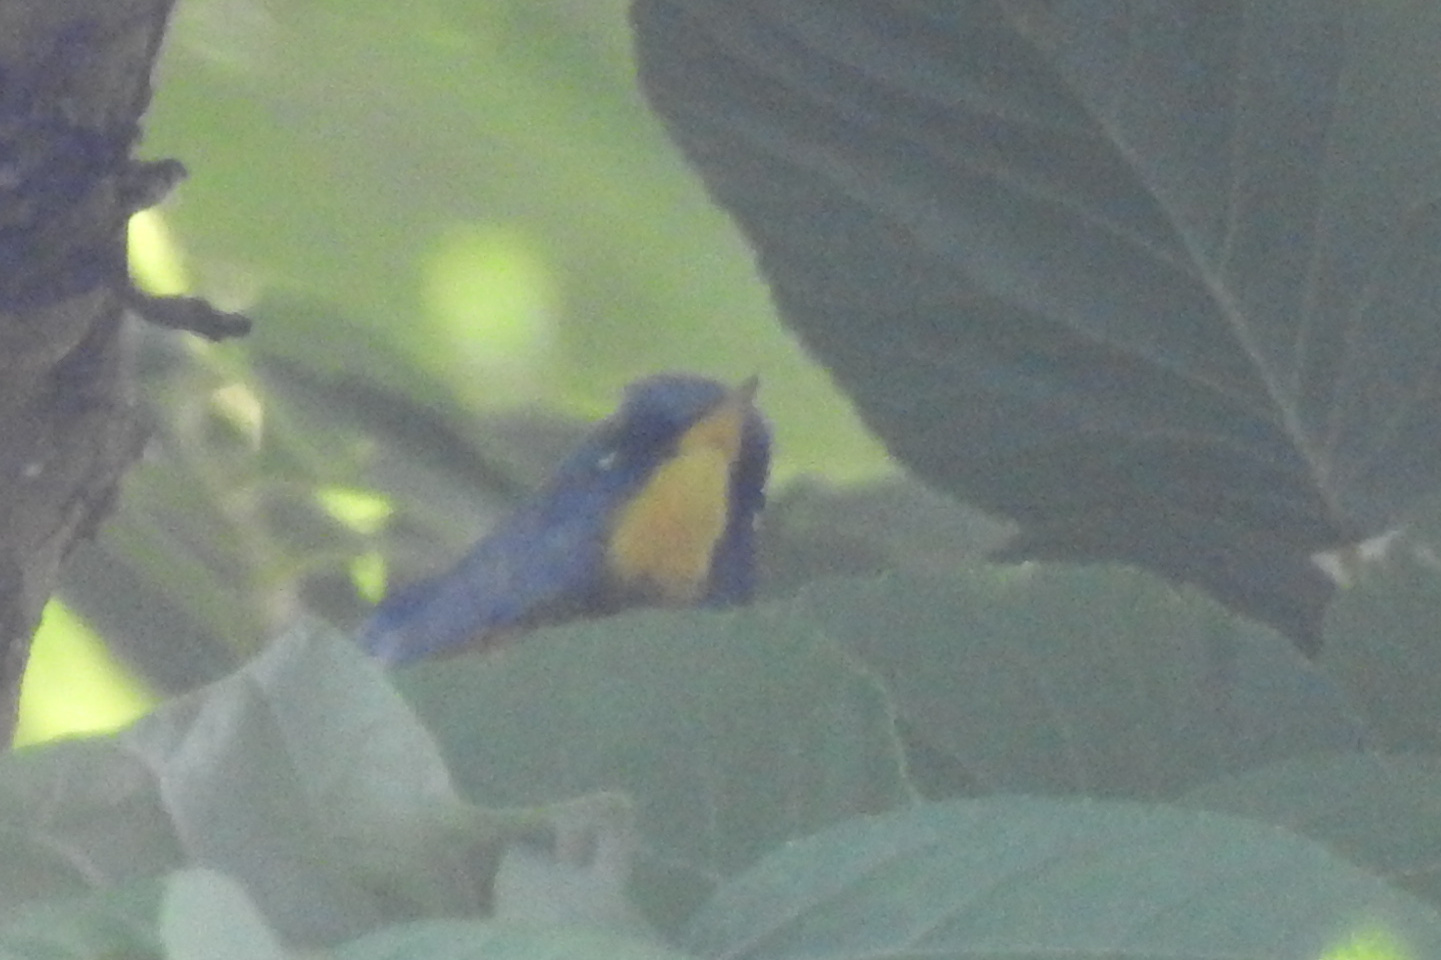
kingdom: Animalia
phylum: Chordata
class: Aves
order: Passeriformes
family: Parulidae
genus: Setophaga
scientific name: Setophaga americana
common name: Northern parula
